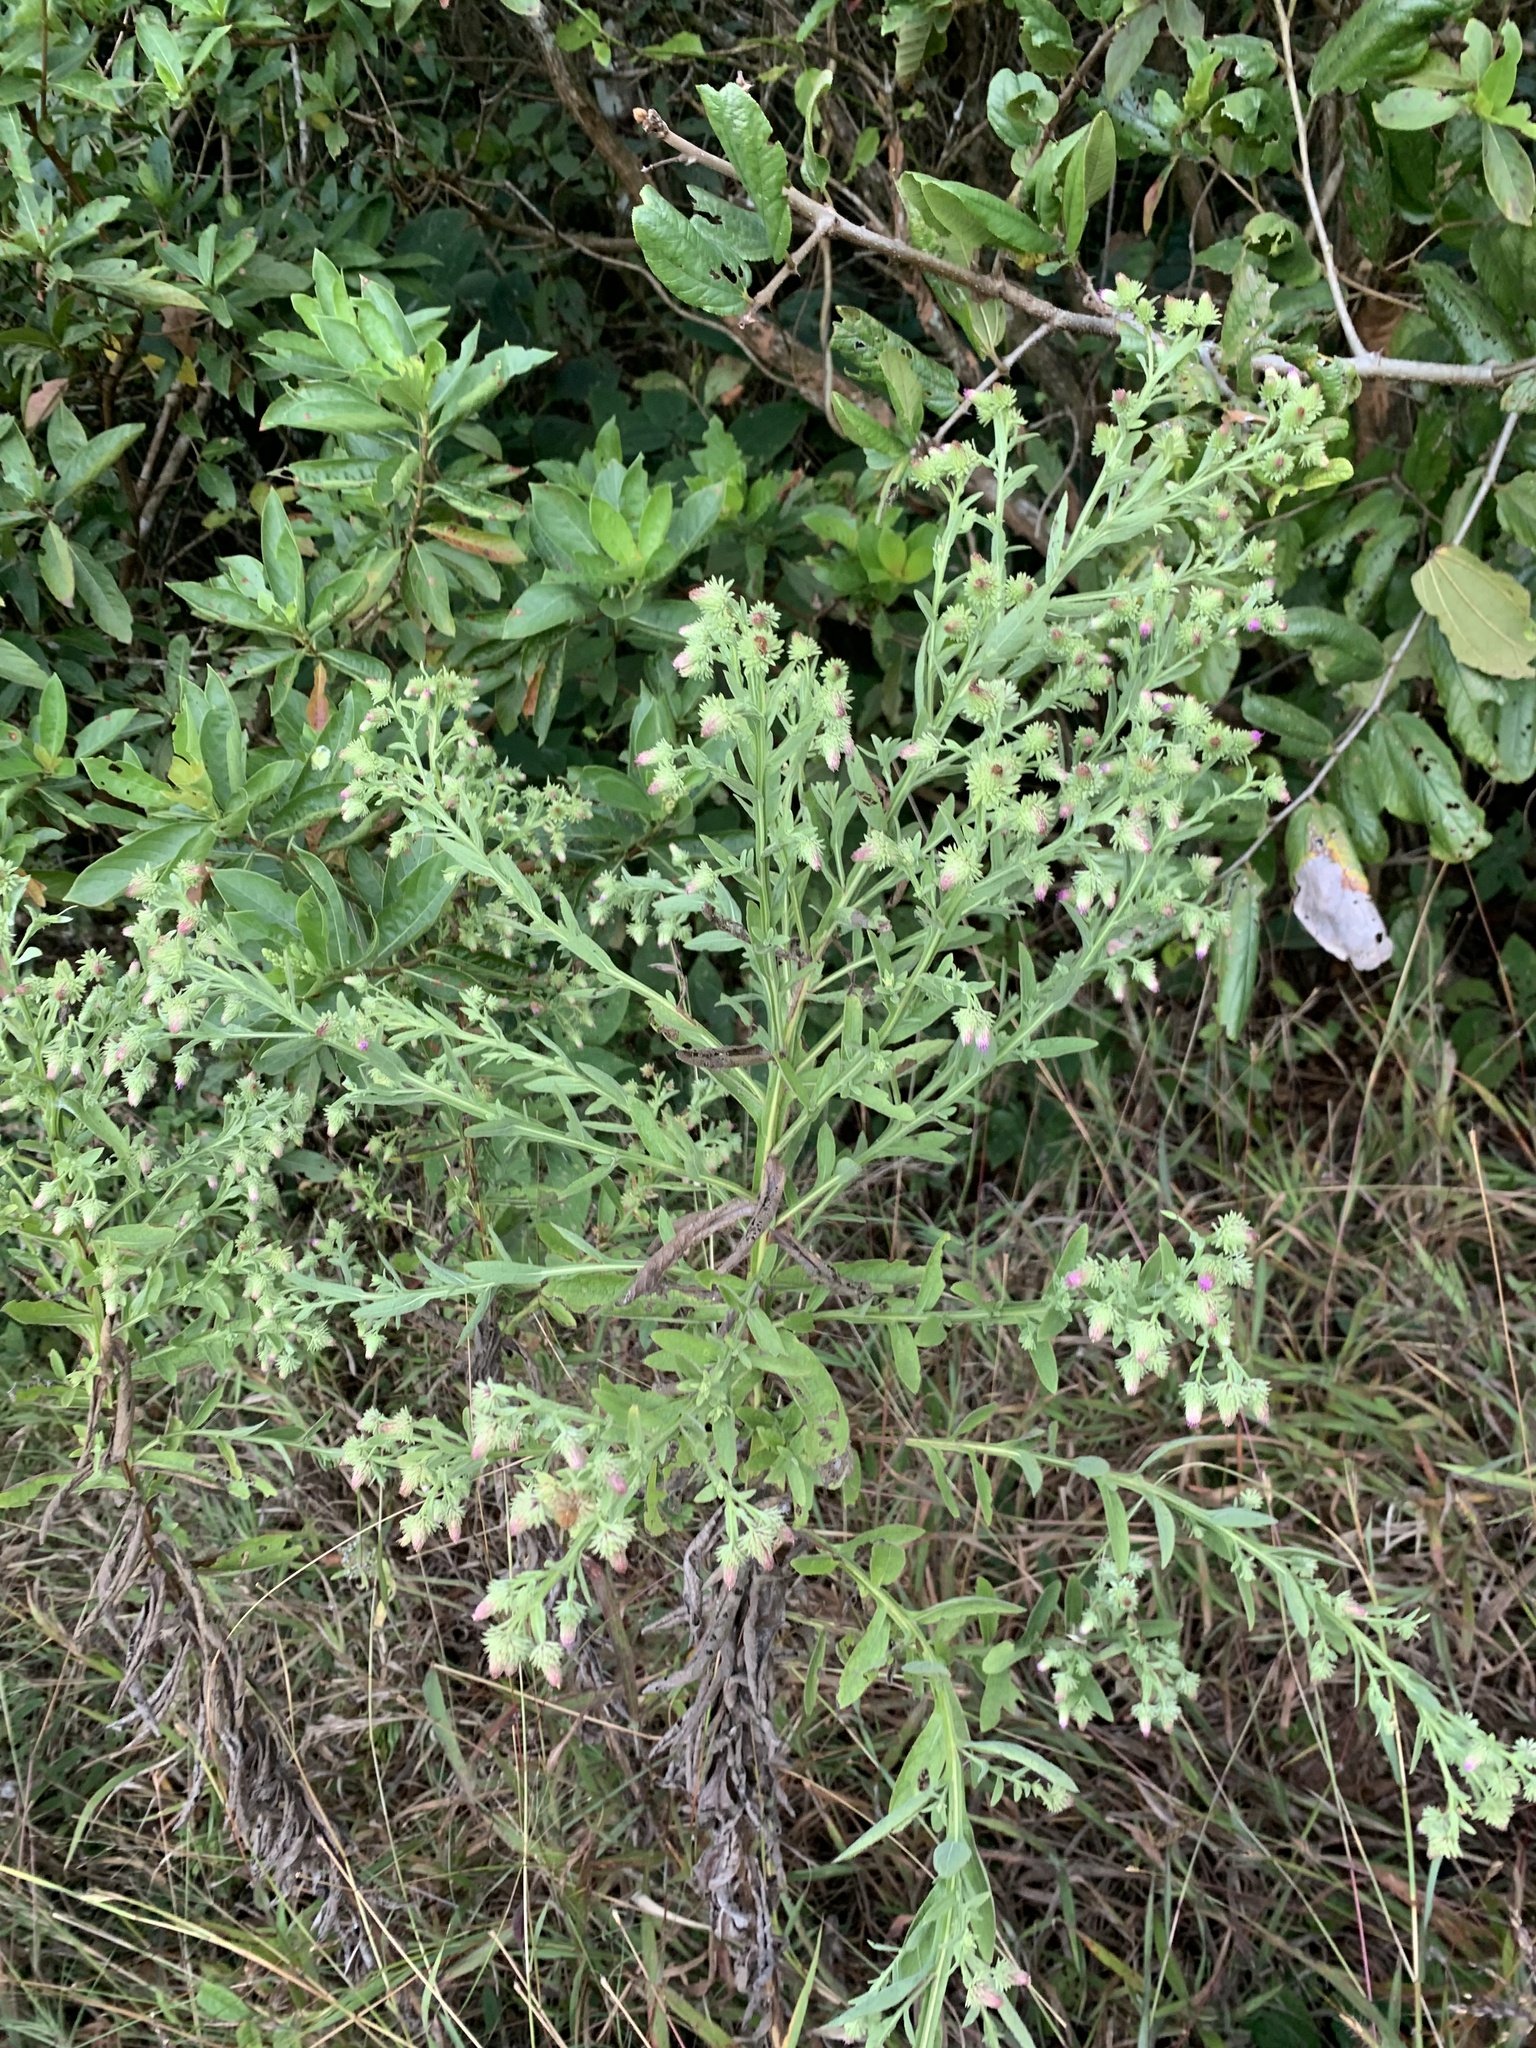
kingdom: Plantae
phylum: Tracheophyta
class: Magnoliopsida
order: Asterales
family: Asteraceae
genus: Laggera
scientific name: Laggera alata
